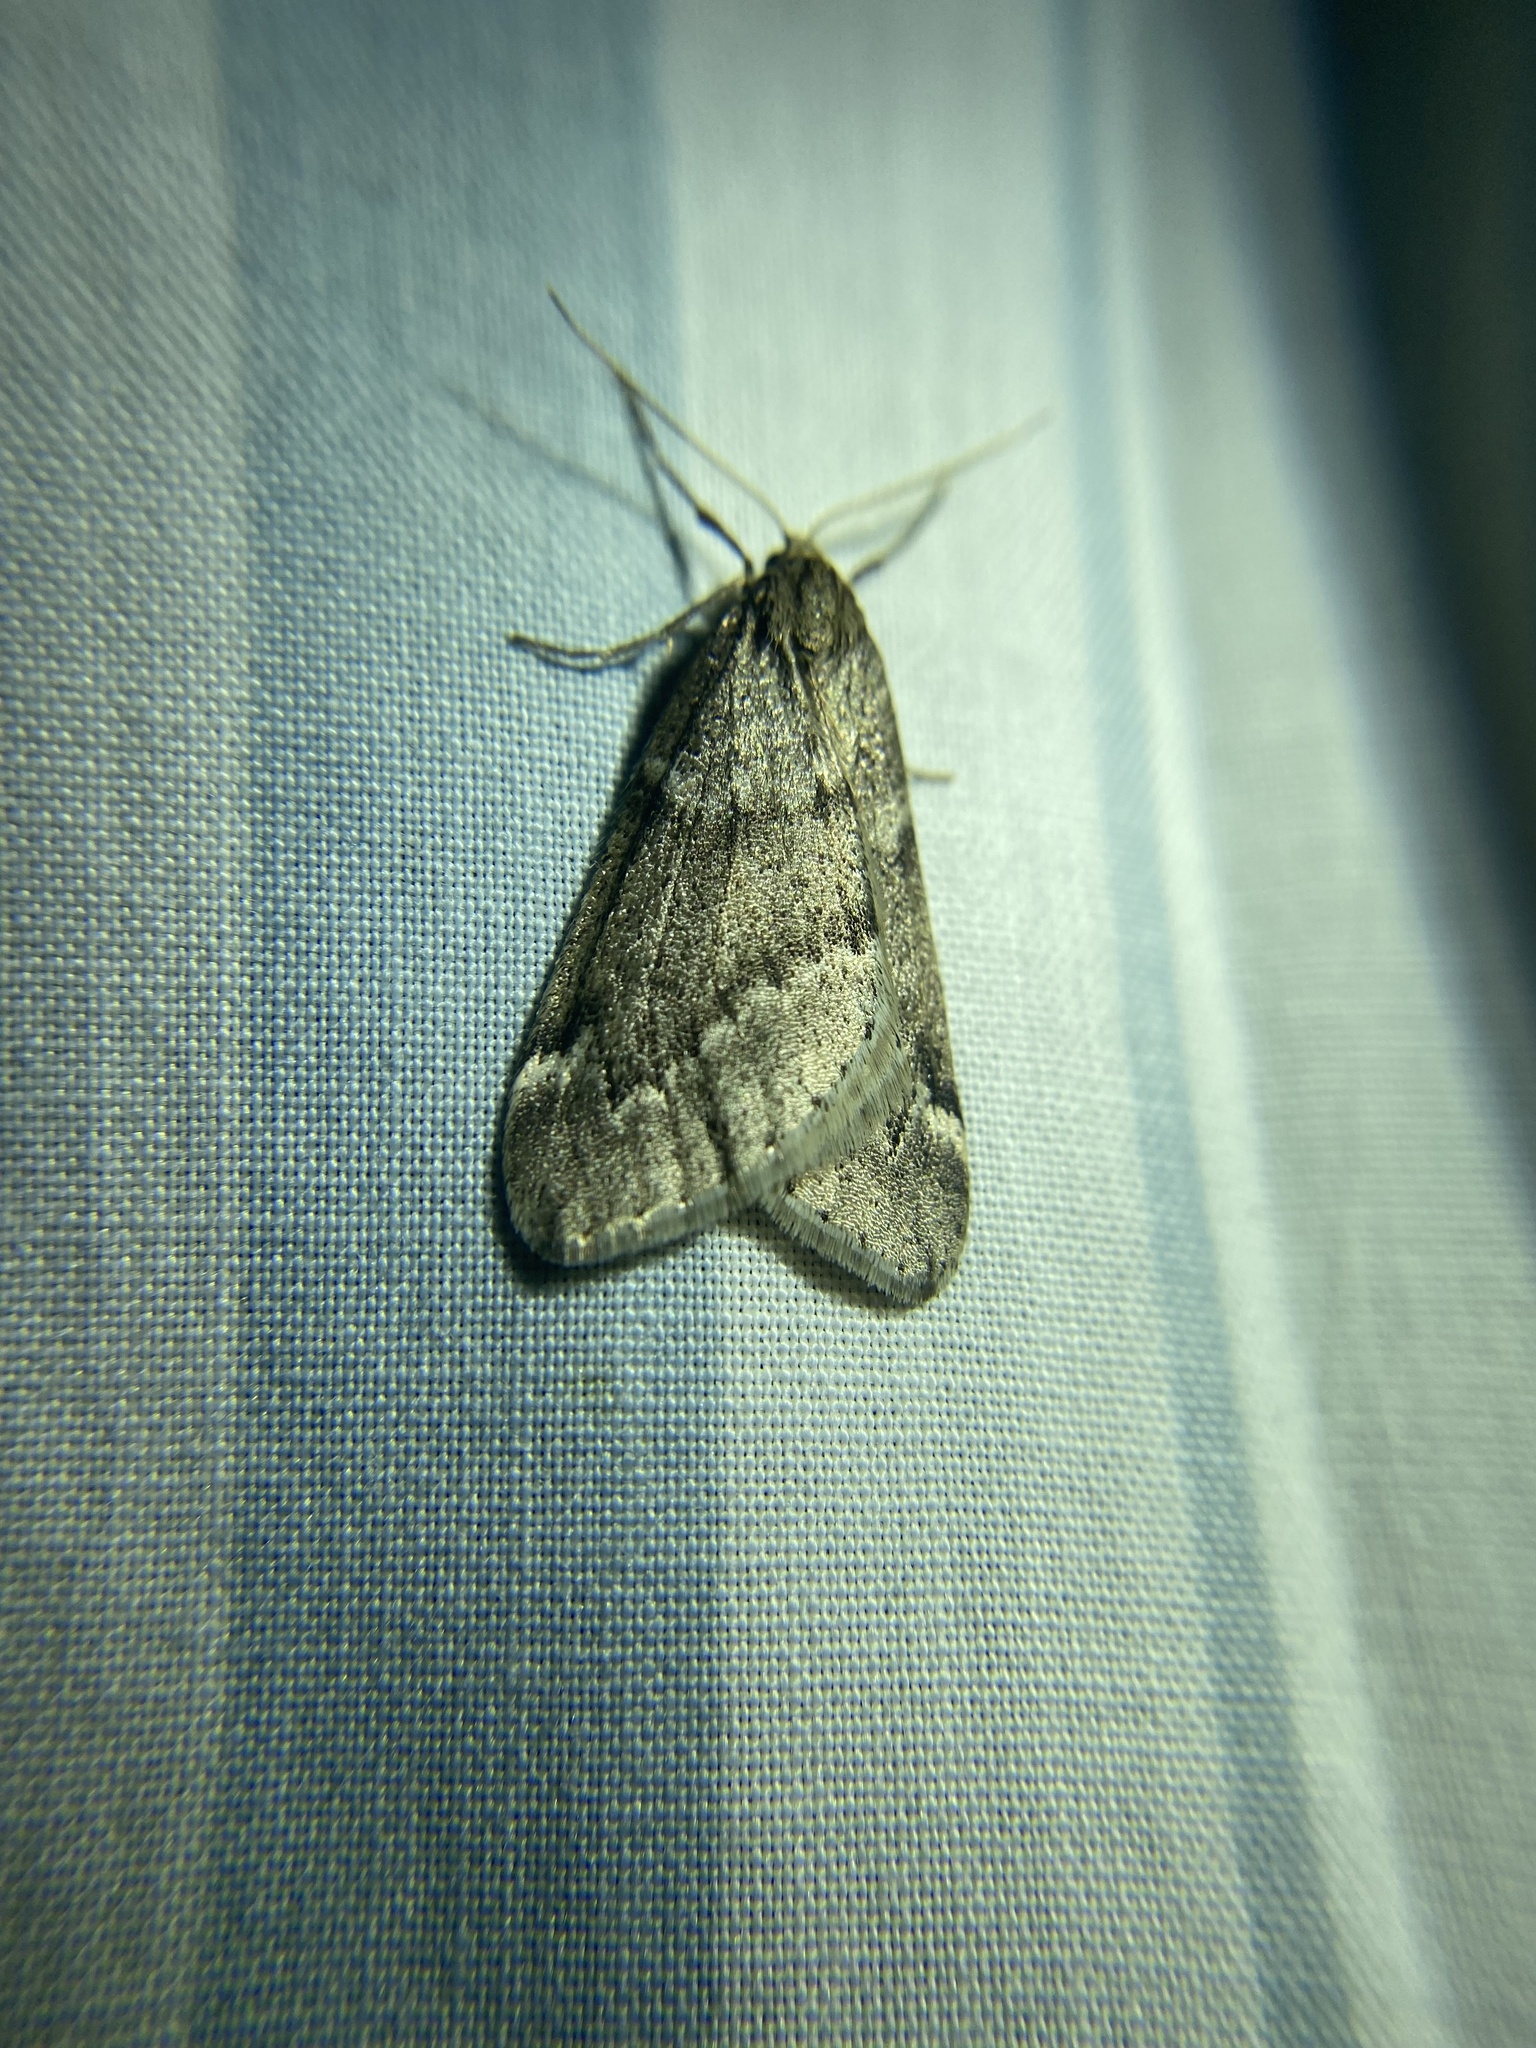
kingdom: Animalia
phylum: Arthropoda
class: Insecta
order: Lepidoptera
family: Geometridae
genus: Alsophila
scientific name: Alsophila pometaria
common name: Fall cankerworm
